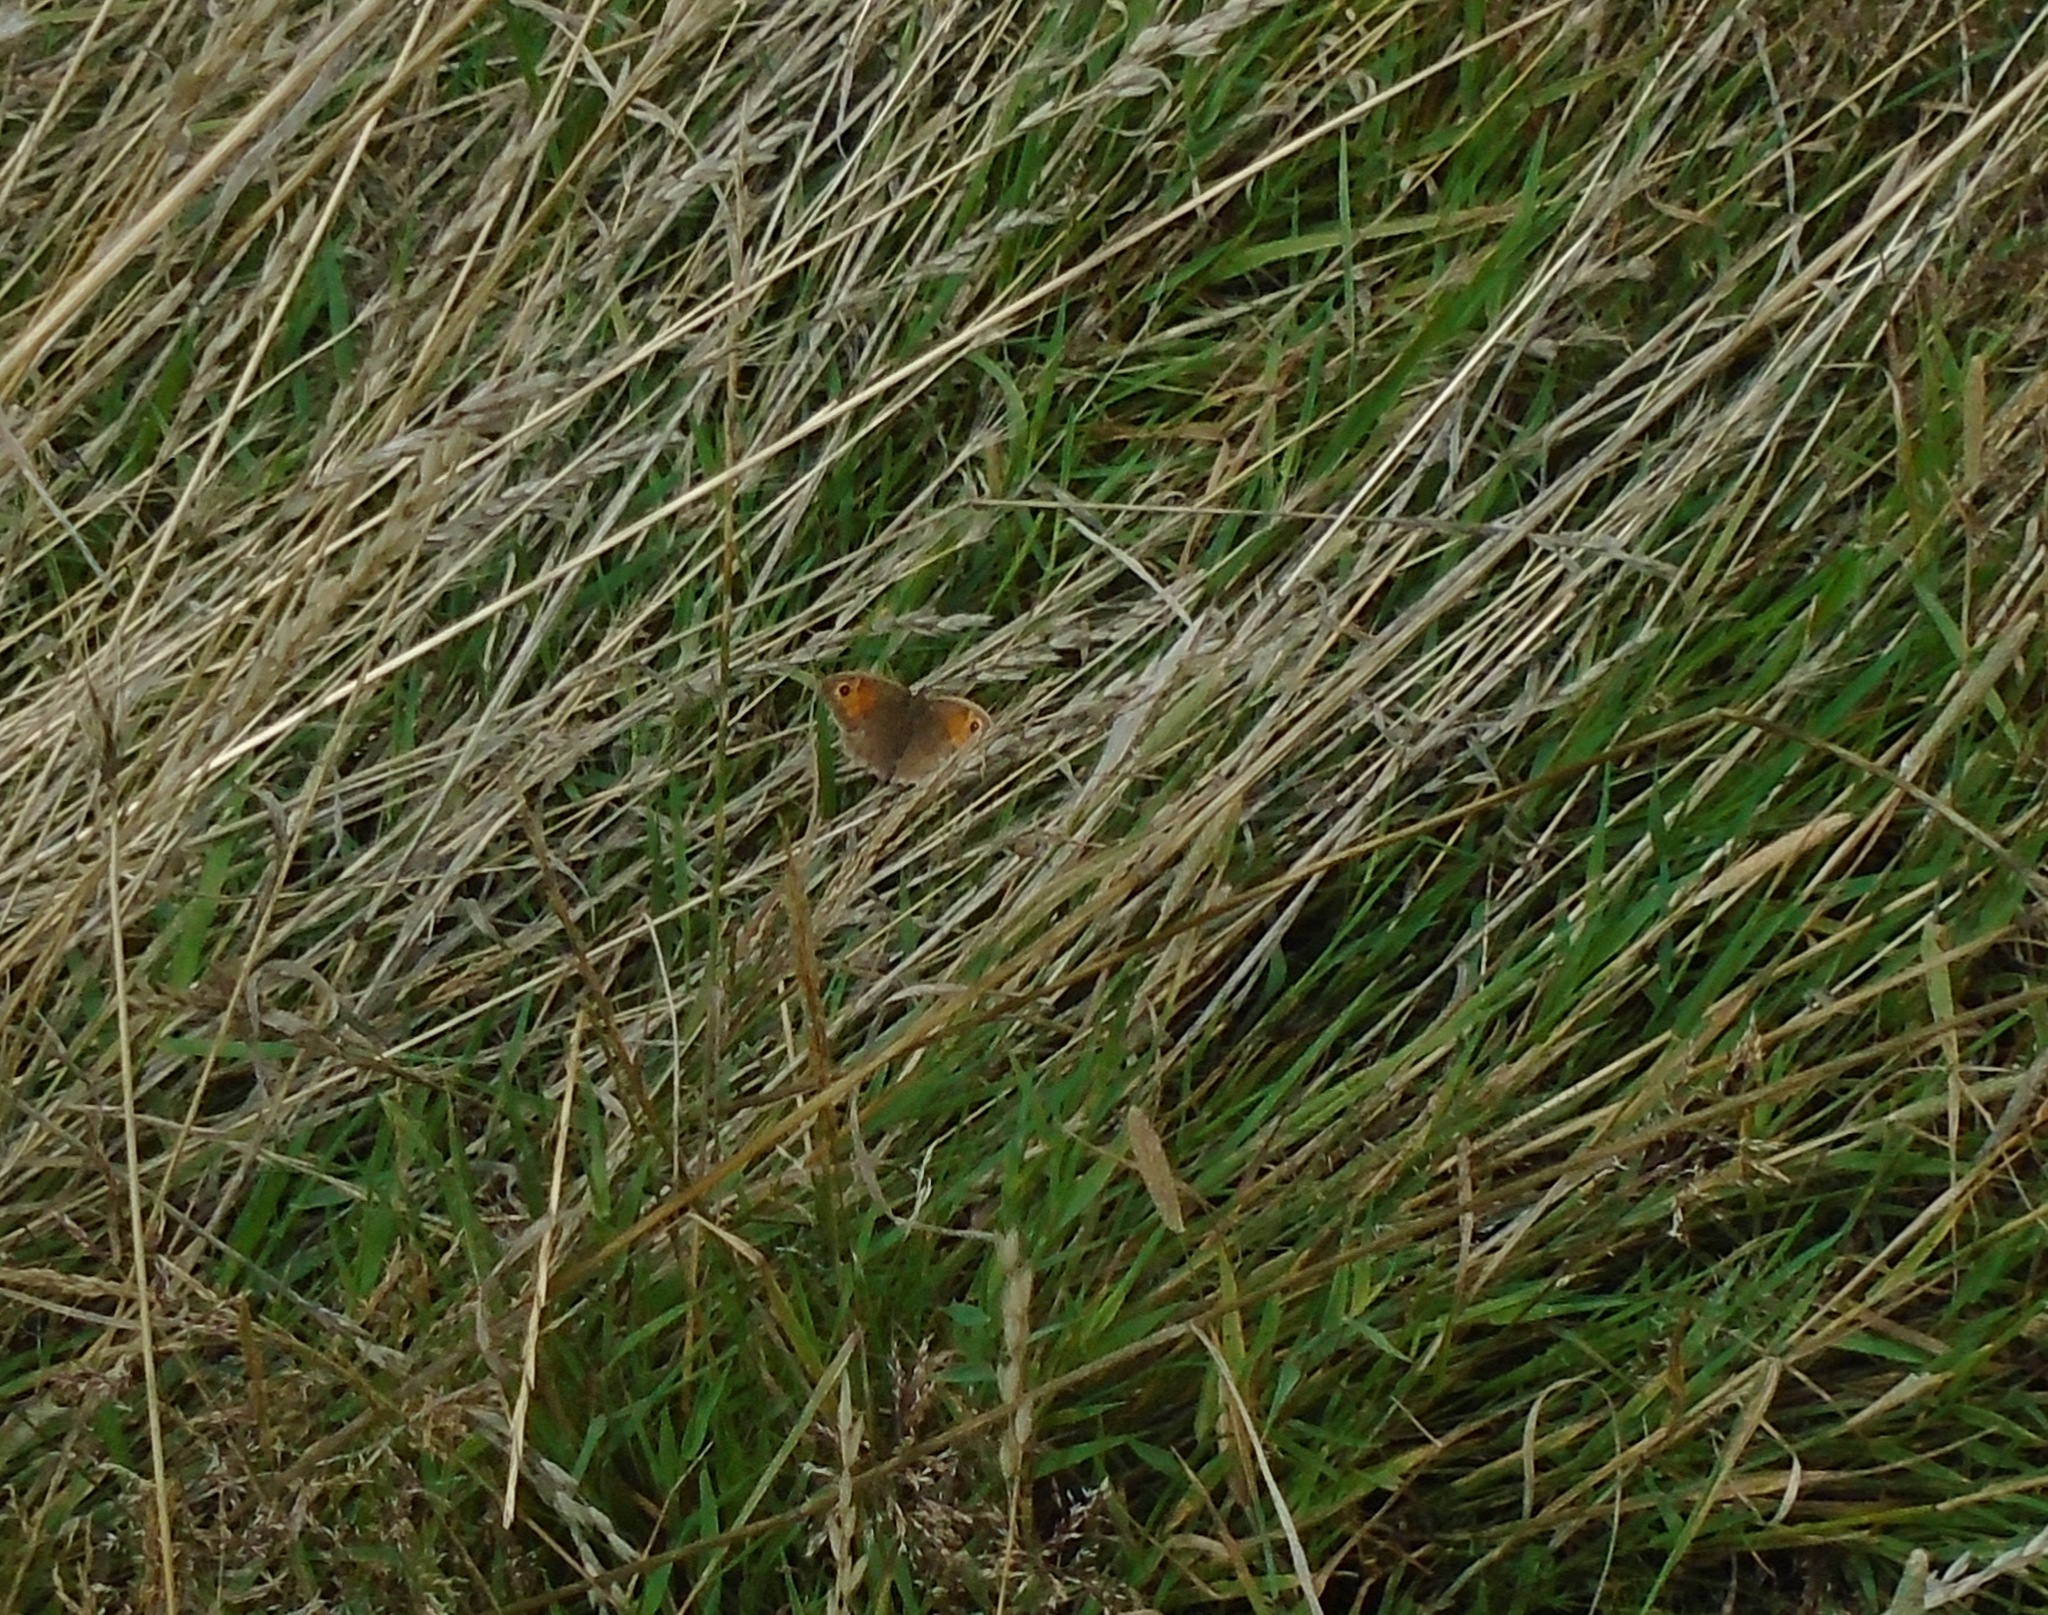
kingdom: Animalia
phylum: Arthropoda
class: Insecta
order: Lepidoptera
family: Nymphalidae
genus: Maniola
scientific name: Maniola jurtina
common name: Meadow brown
